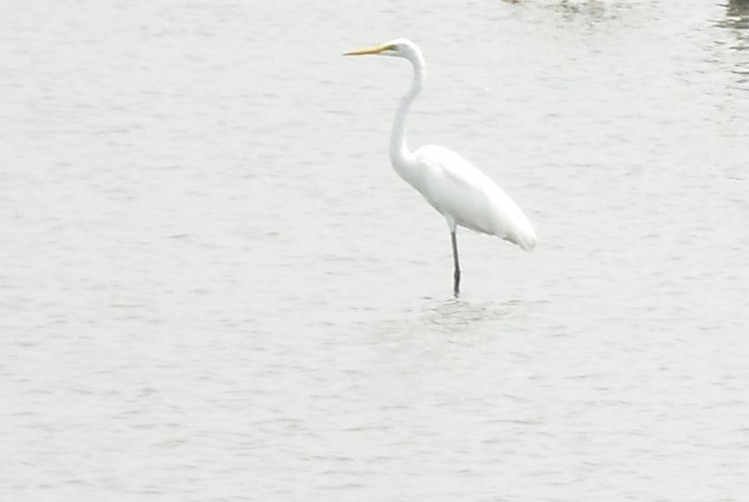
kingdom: Animalia
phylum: Chordata
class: Aves
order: Pelecaniformes
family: Ardeidae
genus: Ardea
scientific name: Ardea alba
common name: Great egret
